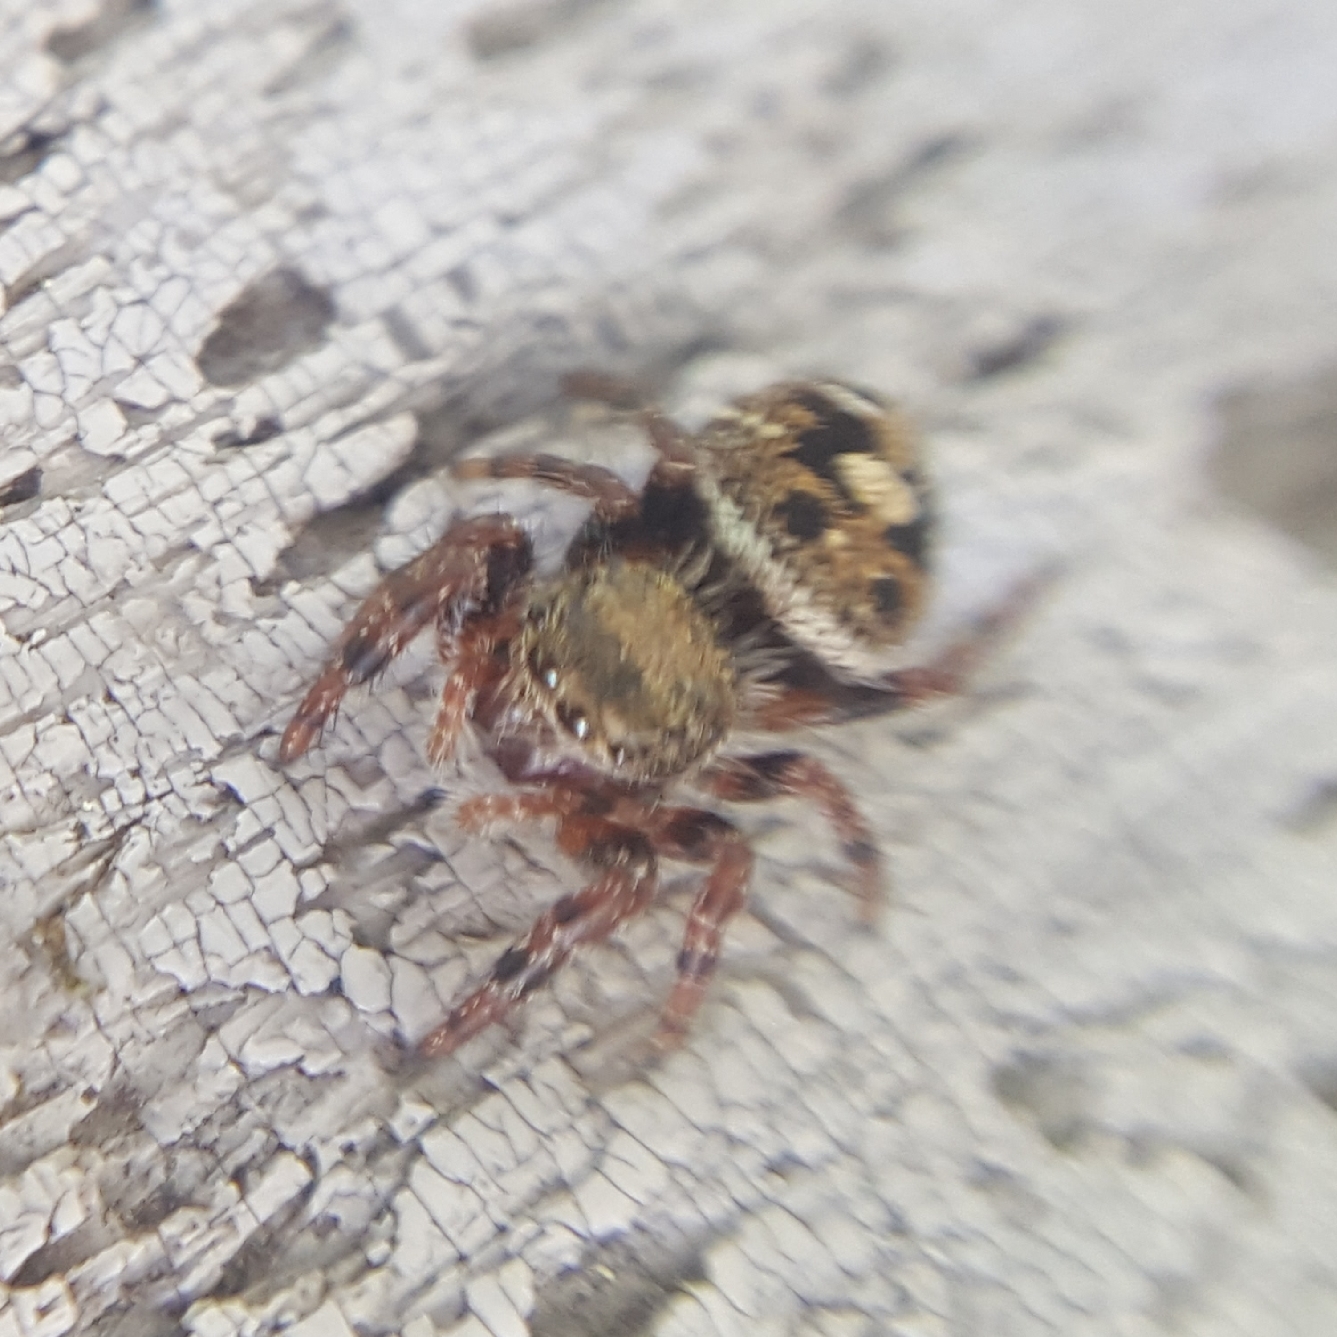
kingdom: Animalia
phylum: Arthropoda
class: Arachnida
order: Araneae
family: Salticidae
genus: Phidippus
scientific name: Phidippus audax
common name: Bold jumper
